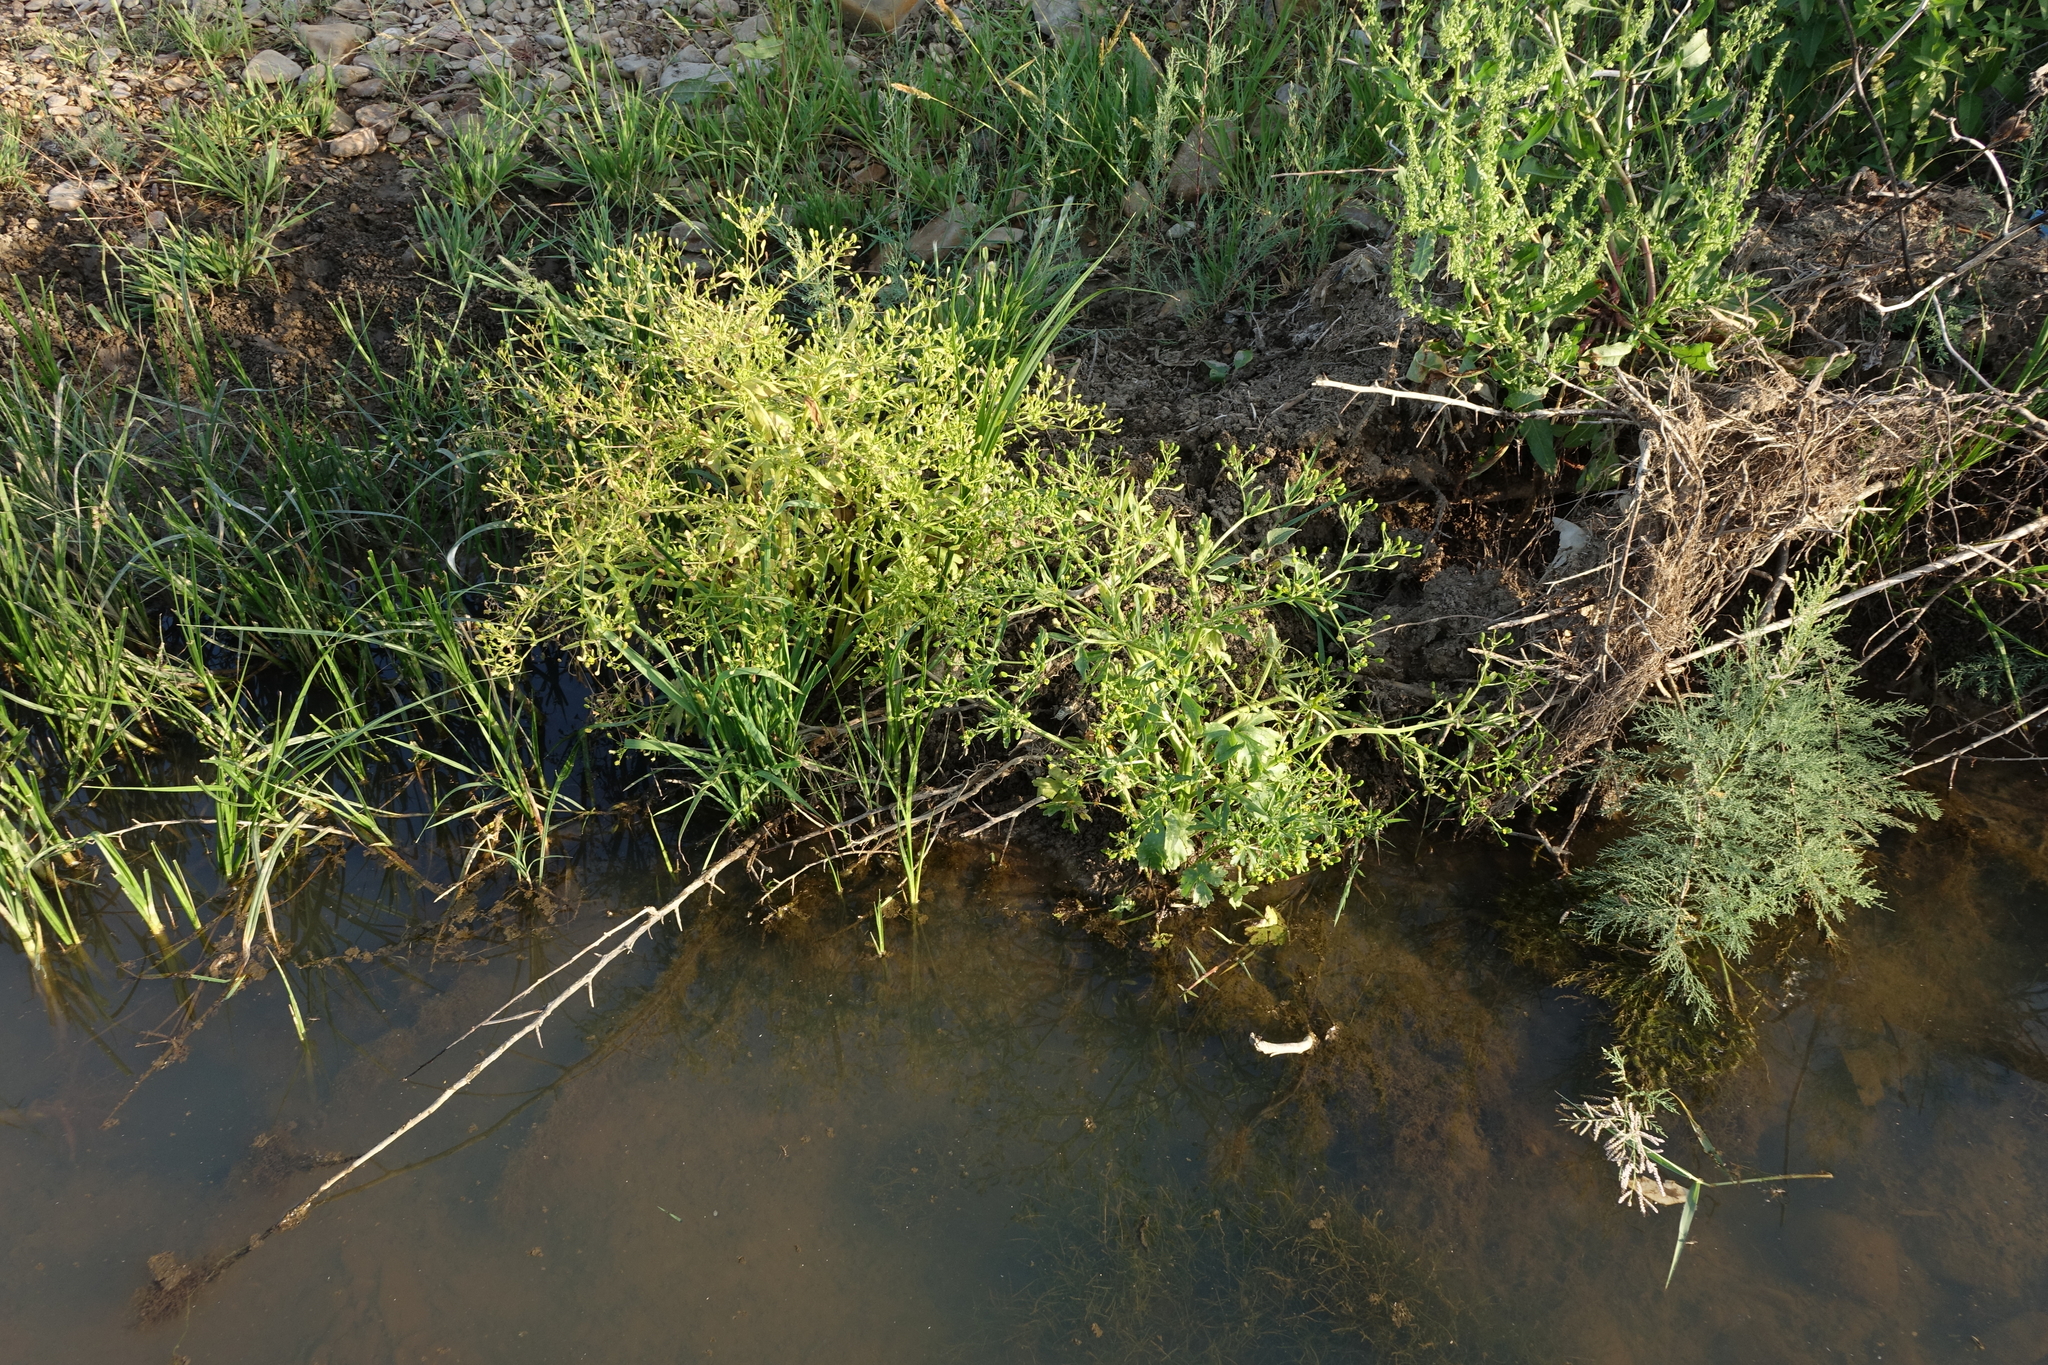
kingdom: Plantae
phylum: Tracheophyta
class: Magnoliopsida
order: Ranunculales
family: Ranunculaceae
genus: Ranunculus
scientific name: Ranunculus sceleratus
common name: Celery-leaved buttercup
